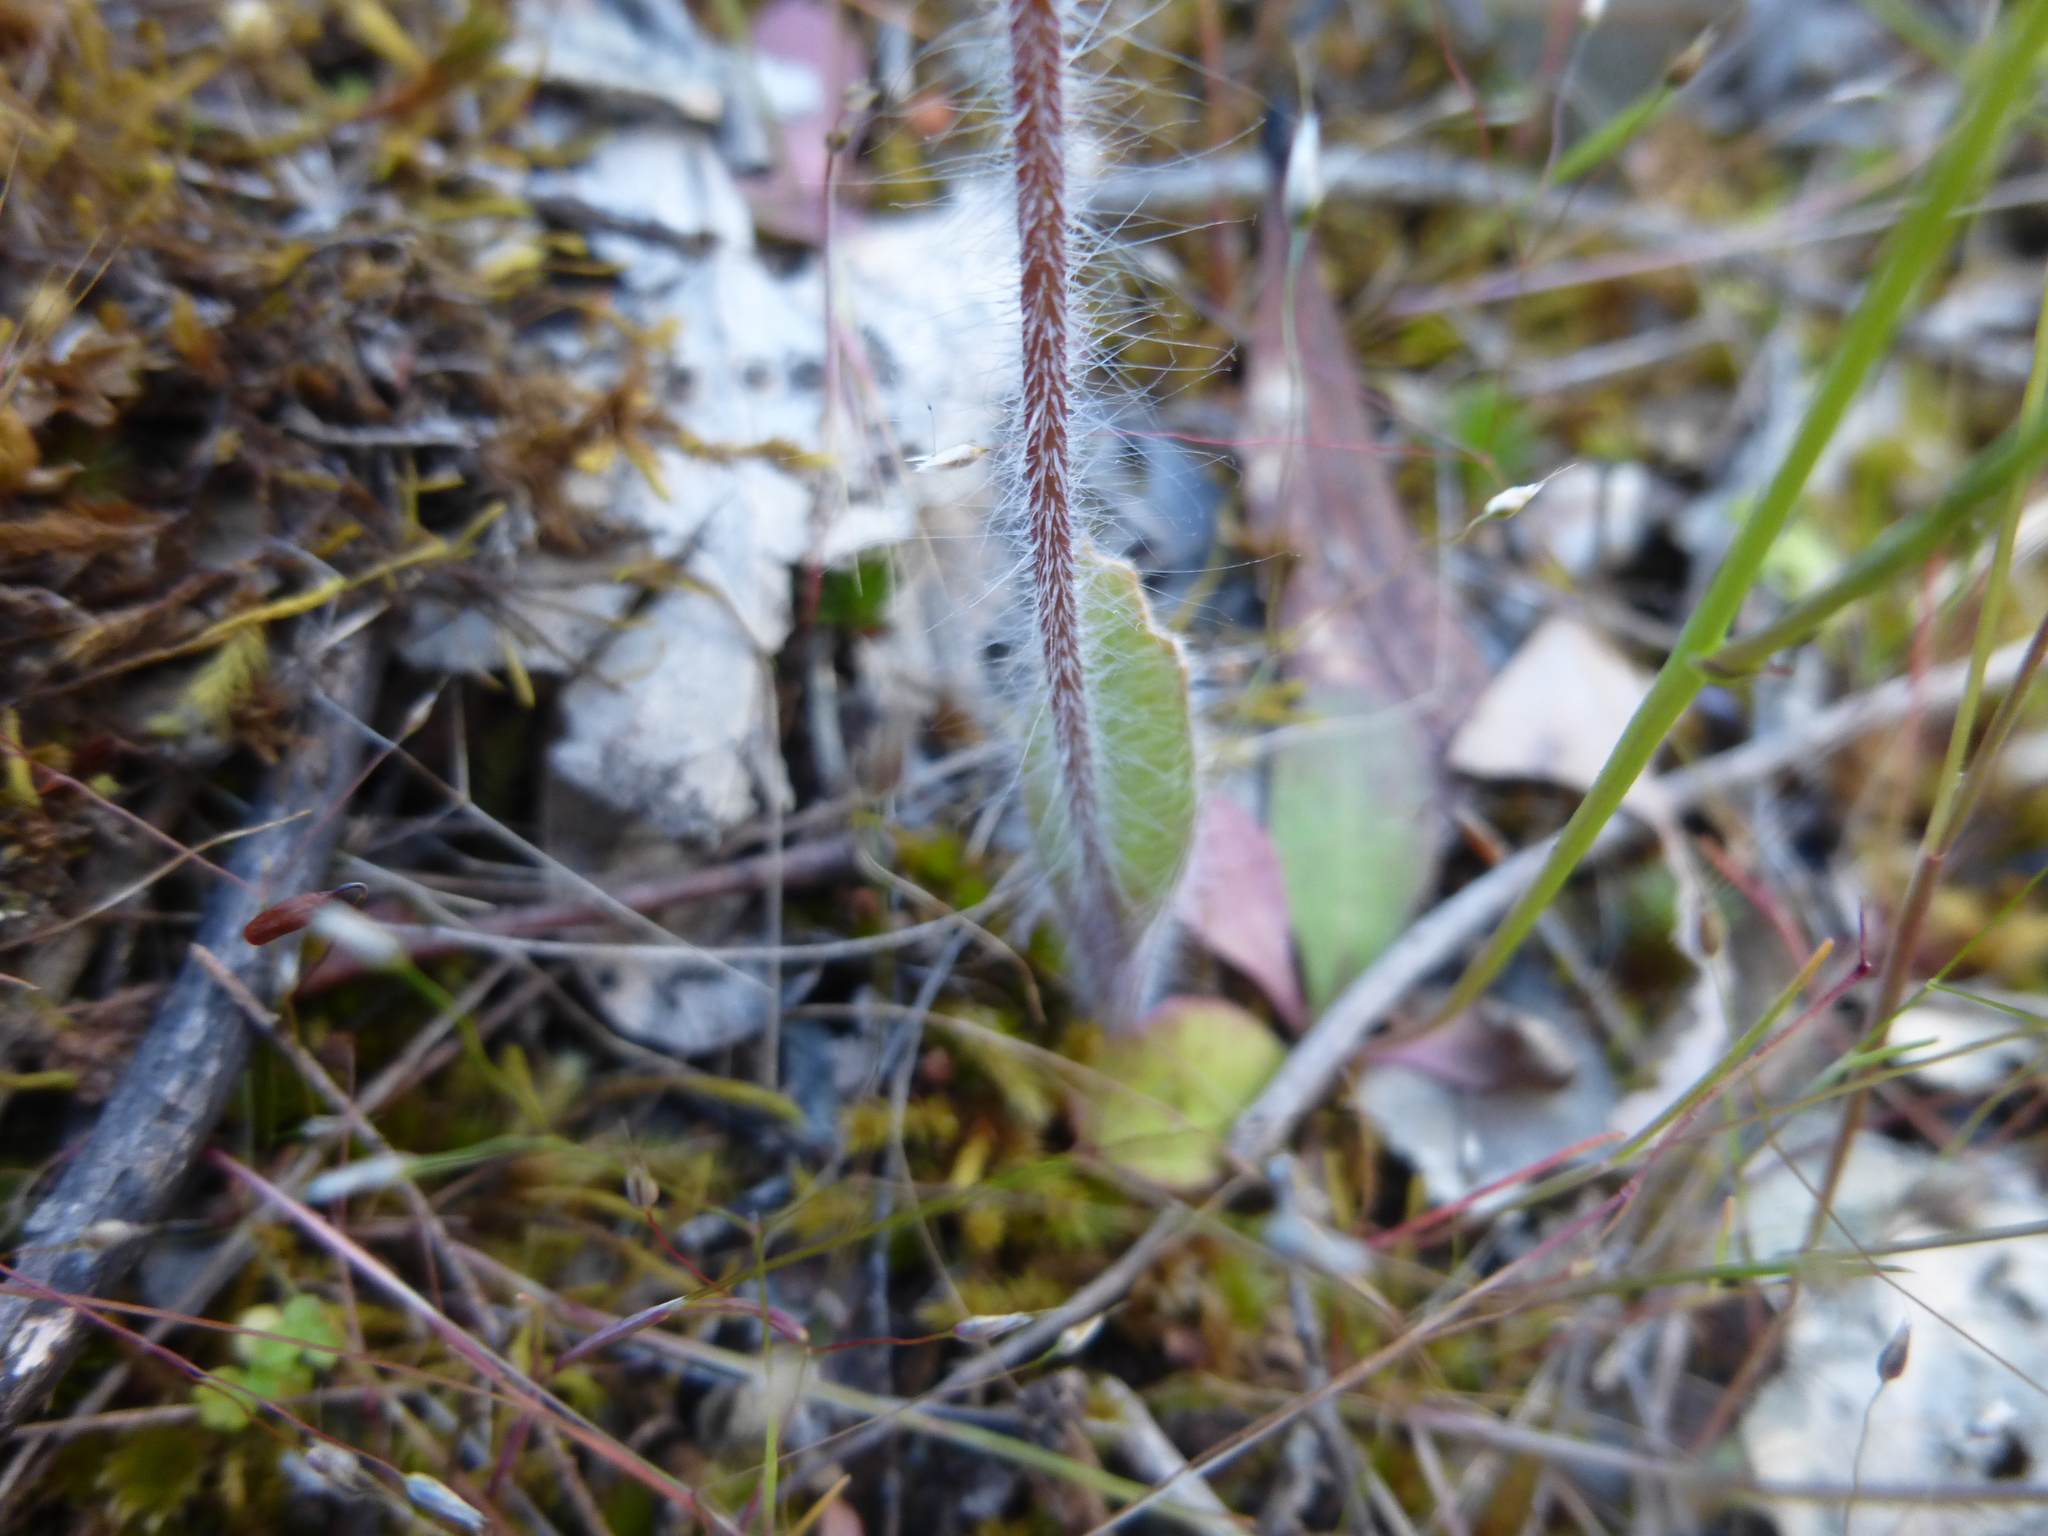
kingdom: Plantae
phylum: Tracheophyta
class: Liliopsida
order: Asparagales
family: Orchidaceae
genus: Caladenia
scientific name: Caladenia parva
